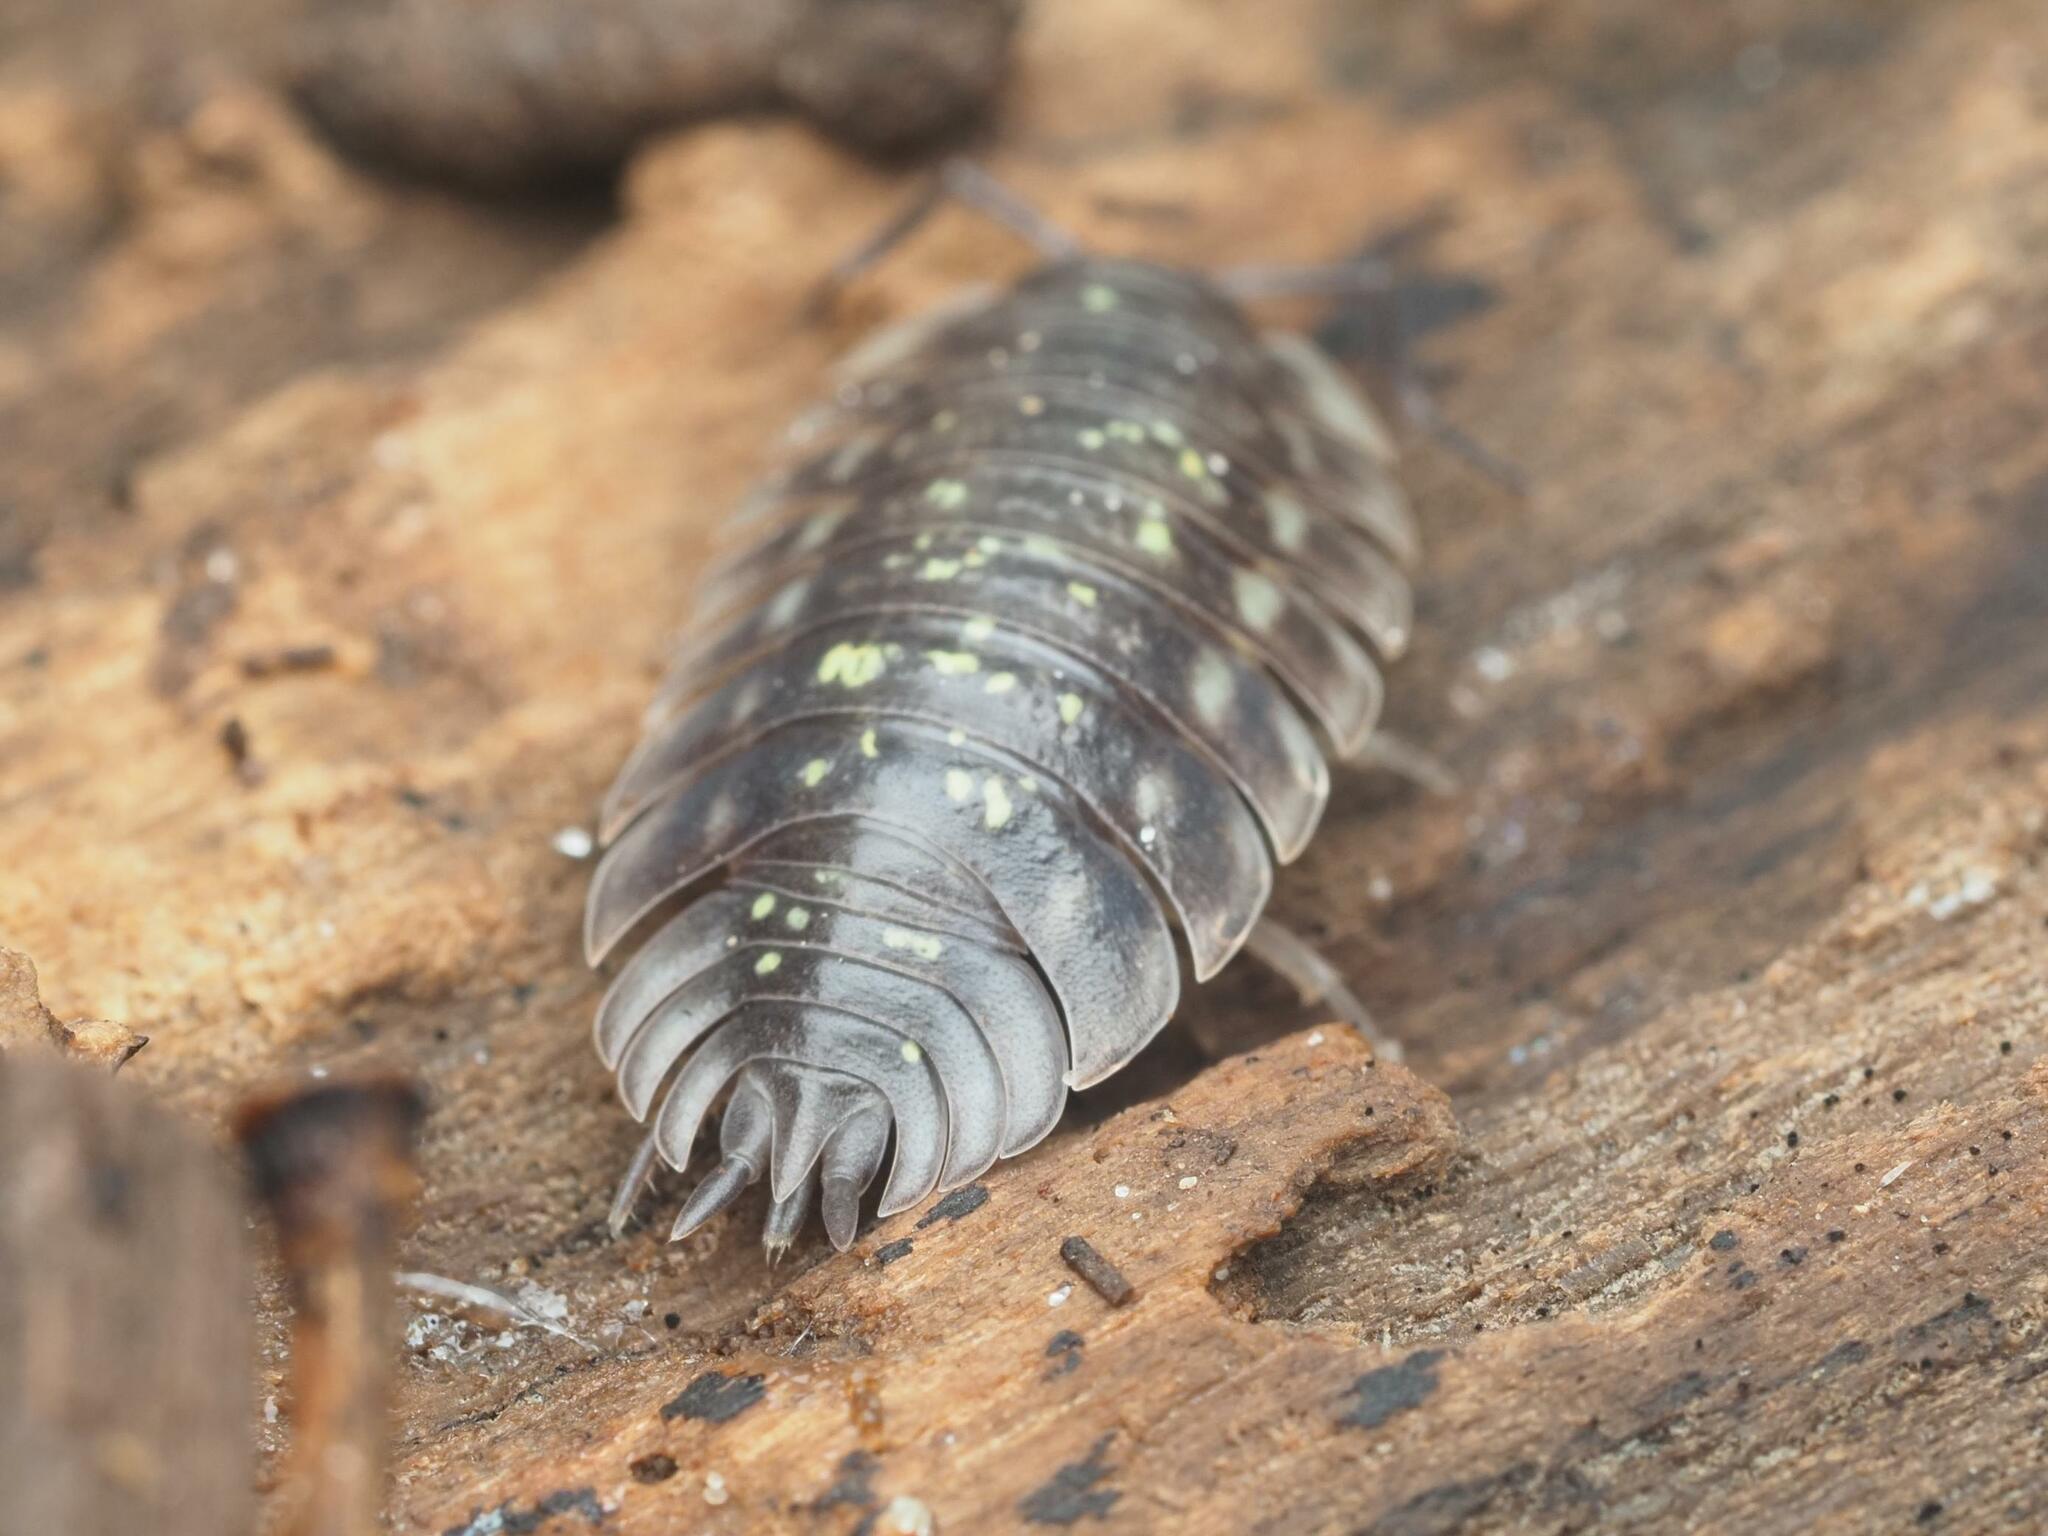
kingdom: Animalia
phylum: Arthropoda
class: Malacostraca
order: Isopoda
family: Oniscidae
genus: Oniscus
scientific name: Oniscus asellus
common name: Common shiny woodlouse
